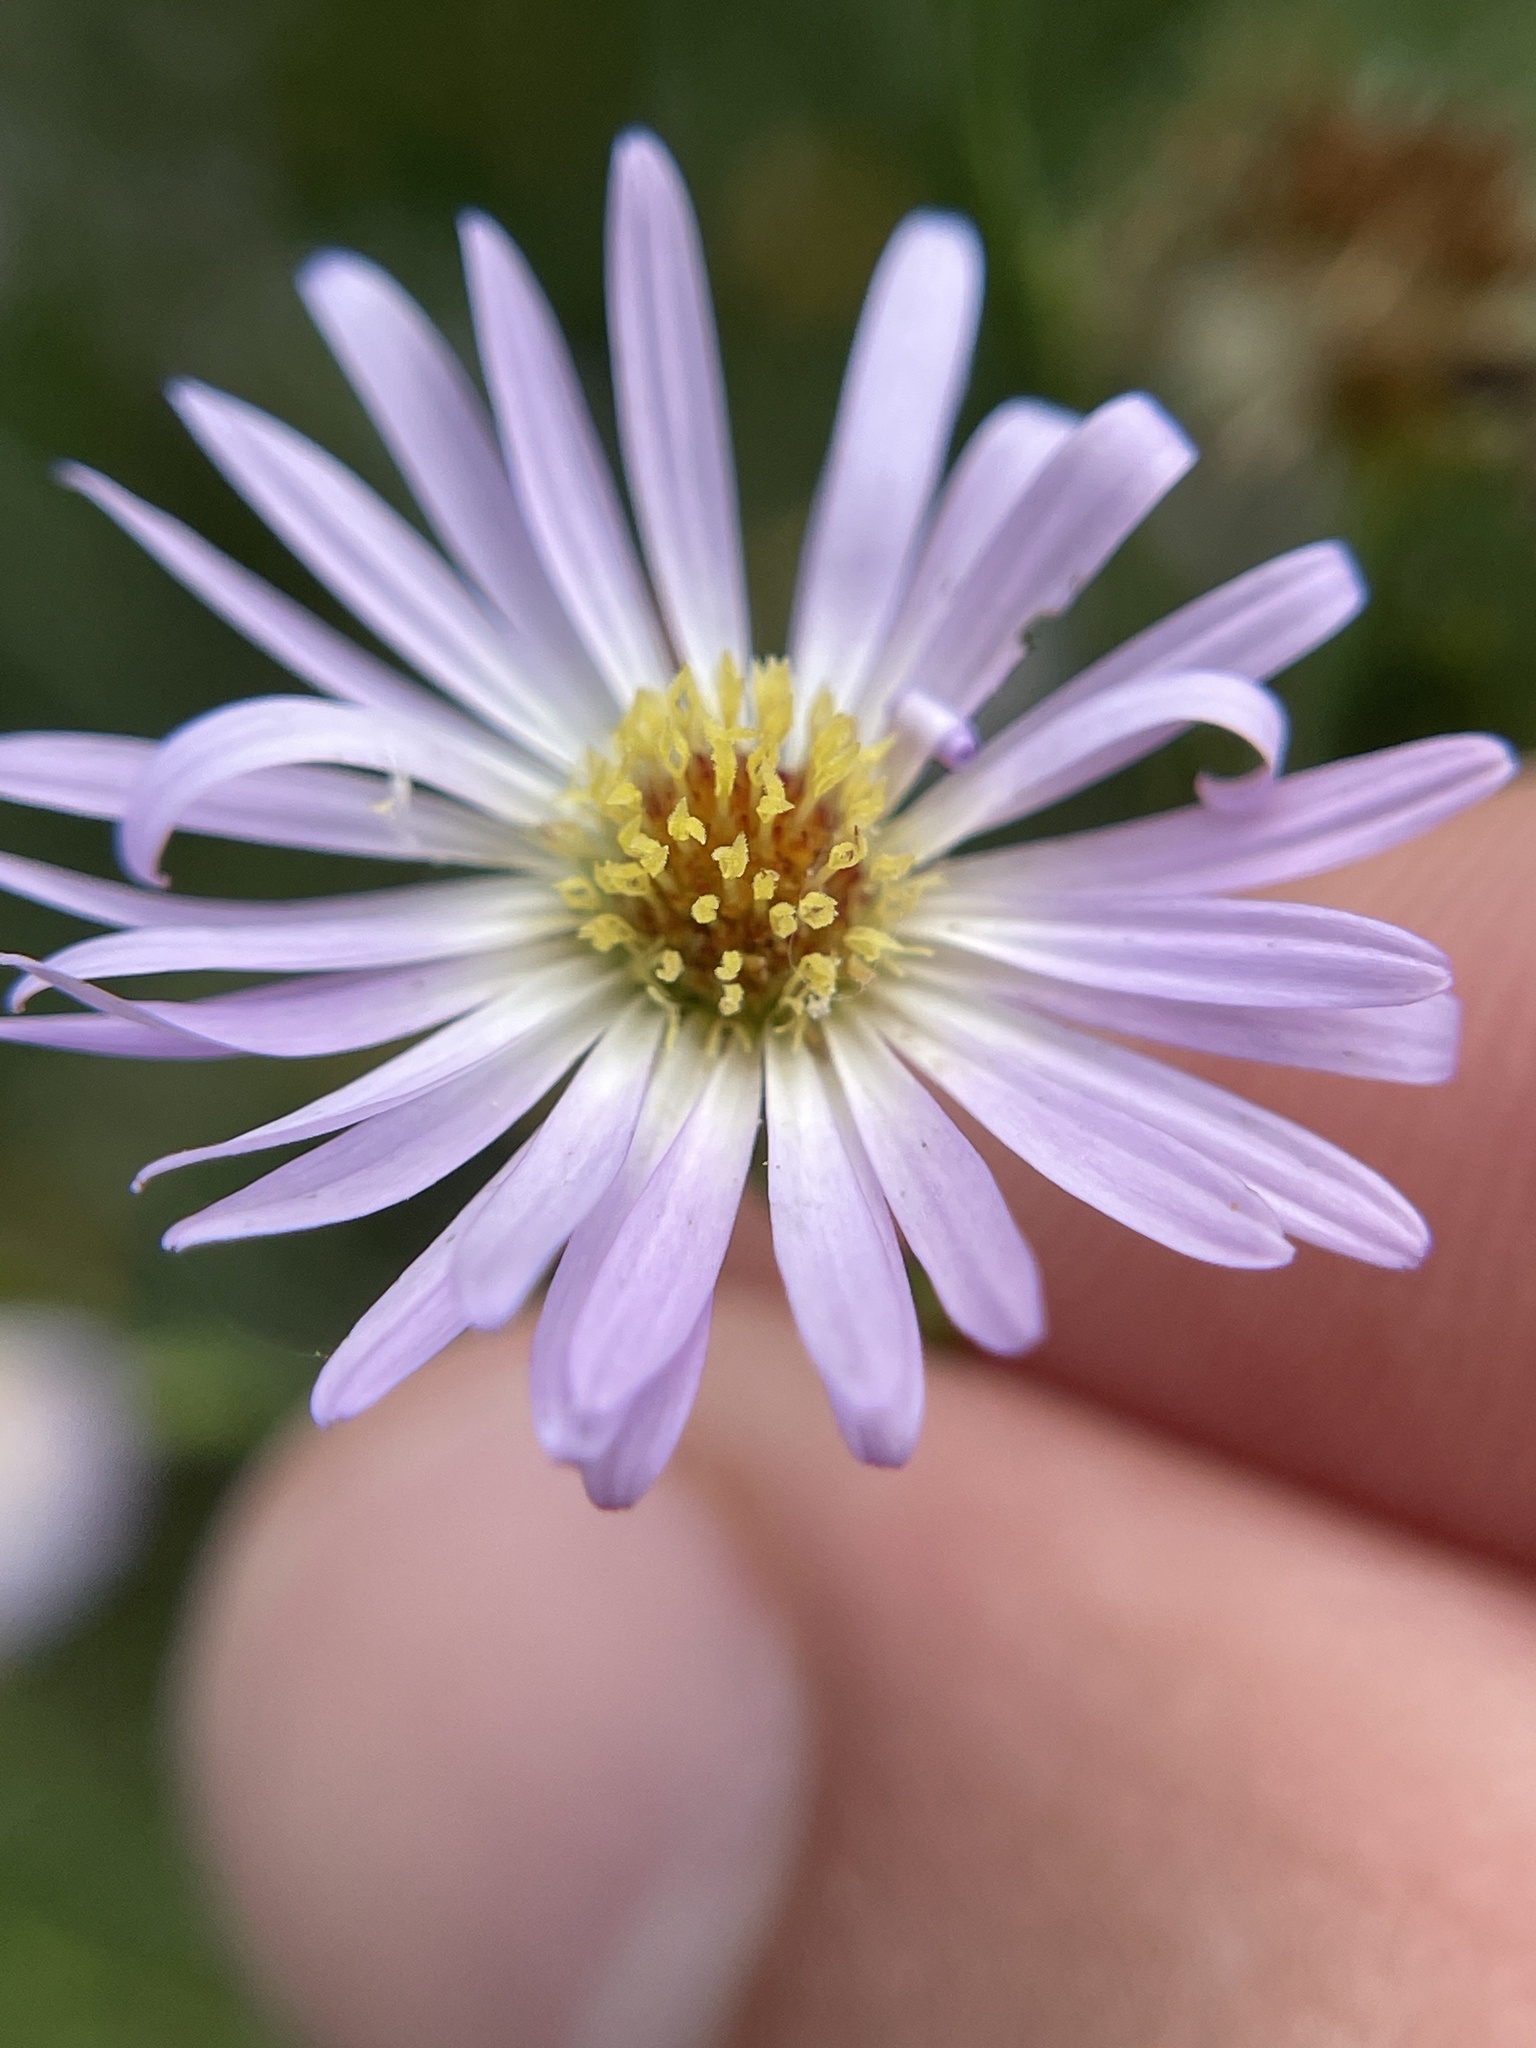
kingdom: Plantae
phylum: Tracheophyta
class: Magnoliopsida
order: Asterales
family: Asteraceae
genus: Symphyotrichum
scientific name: Symphyotrichum divaricatum
